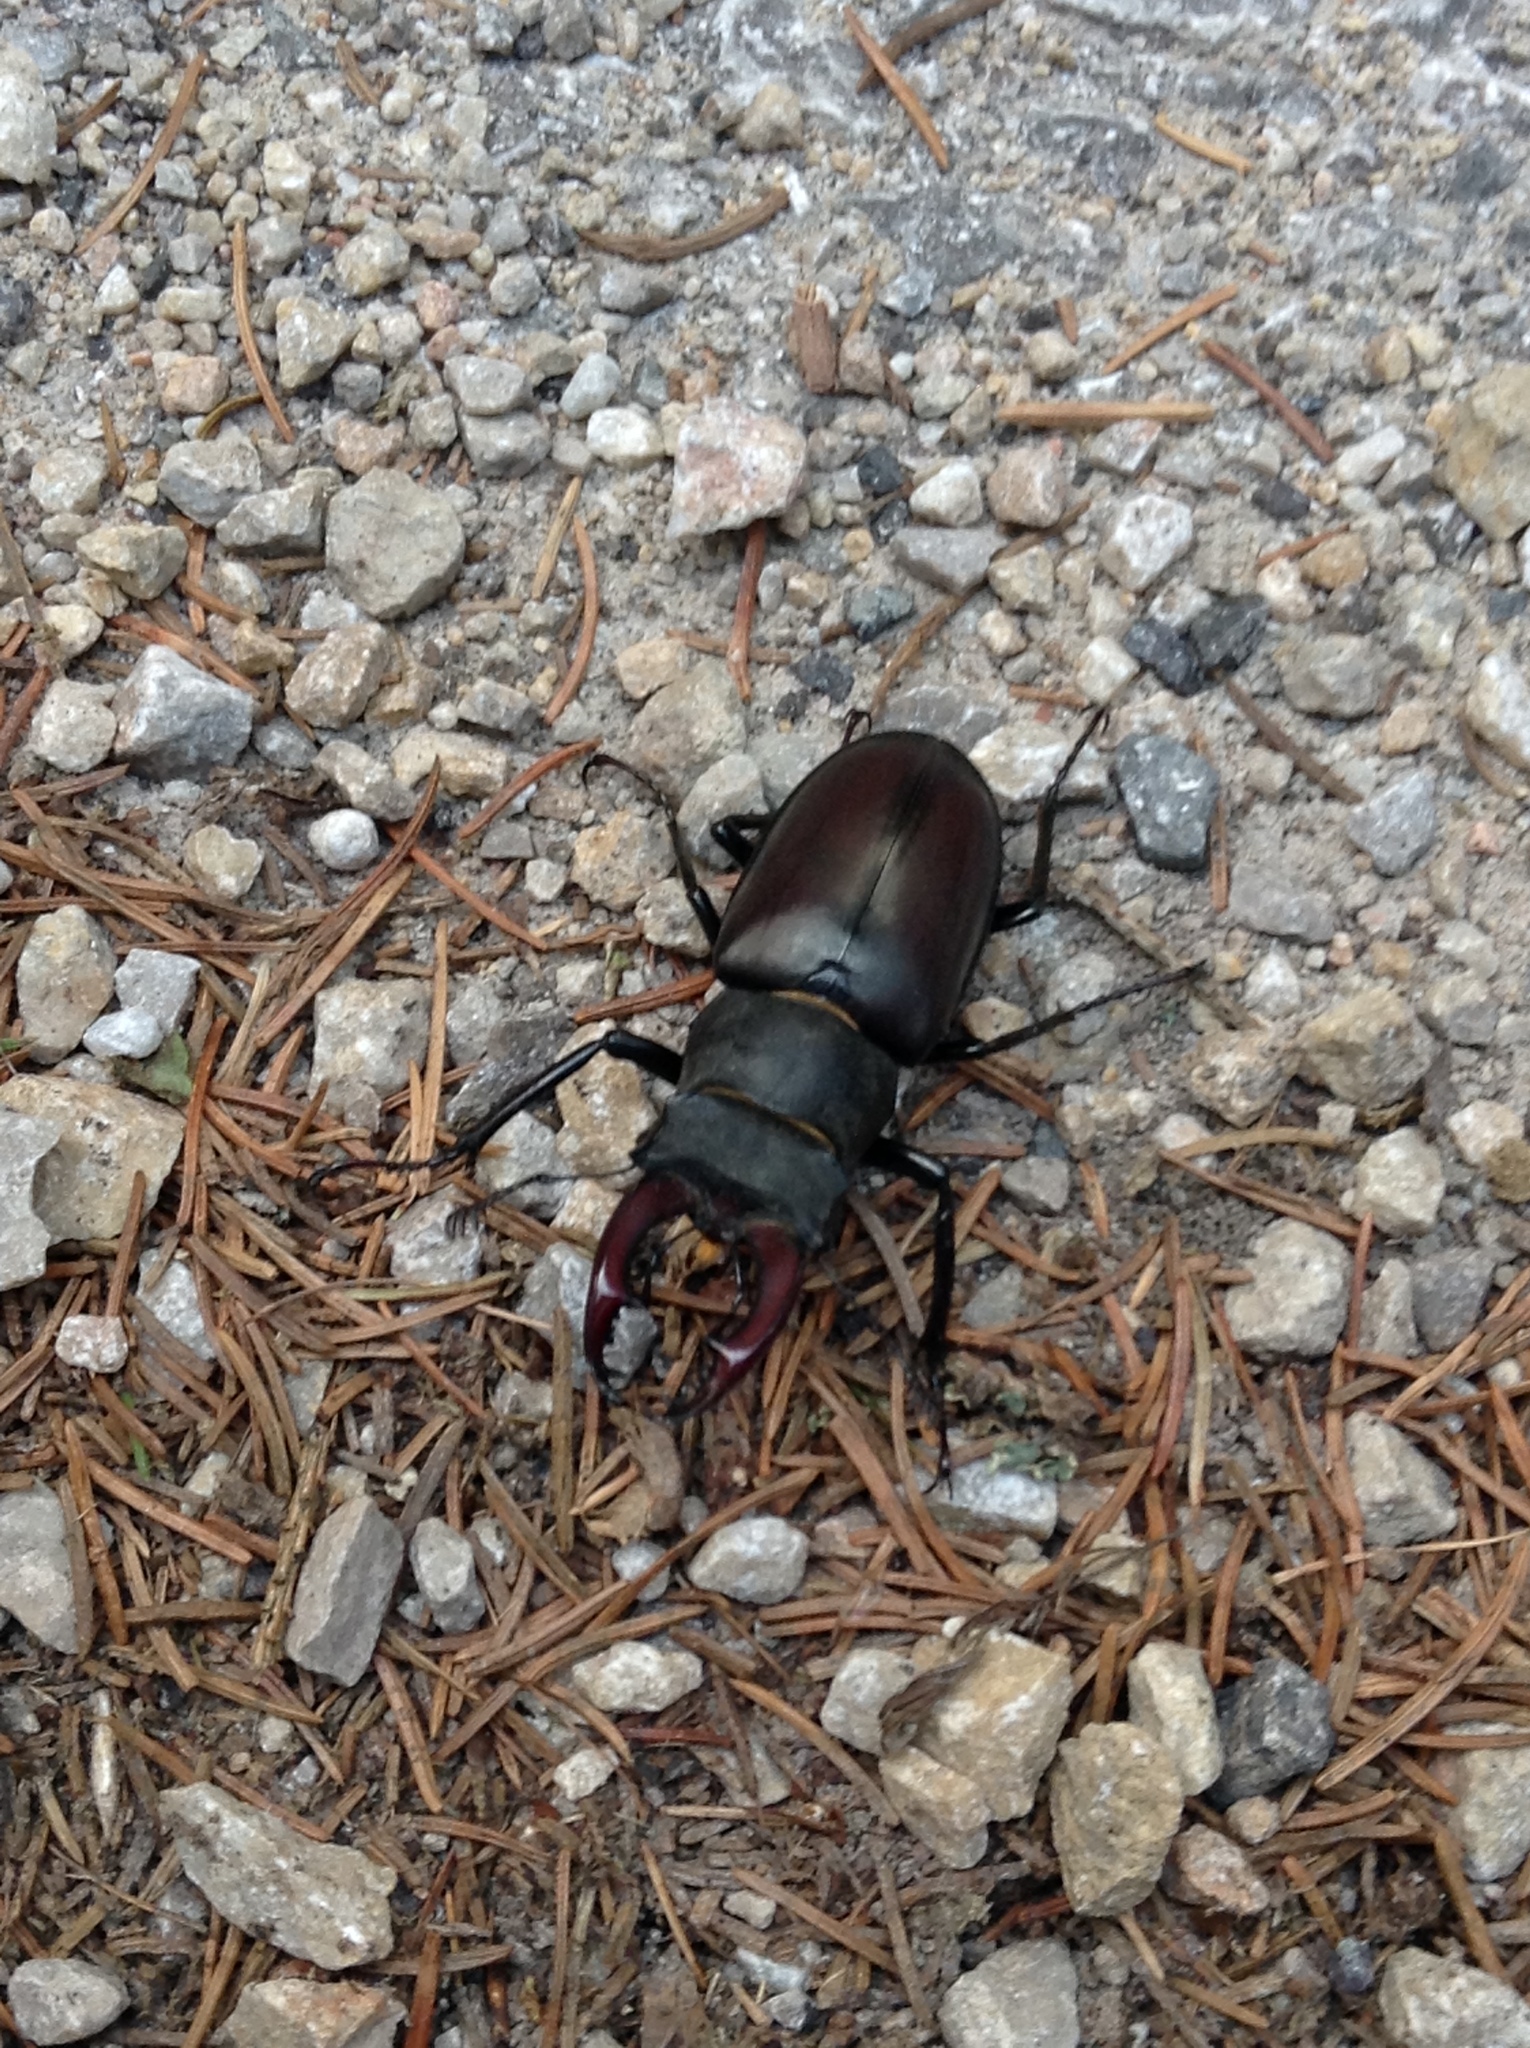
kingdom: Animalia
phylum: Arthropoda
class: Insecta
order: Coleoptera
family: Lucanidae
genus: Lucanus
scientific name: Lucanus cervus
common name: Stag beetle
